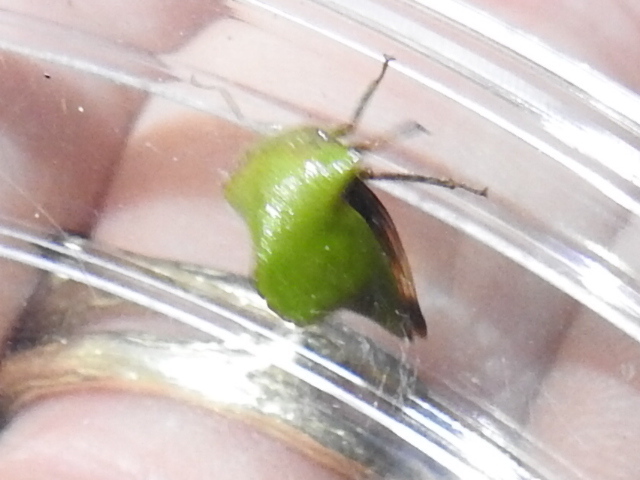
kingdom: Animalia
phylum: Arthropoda
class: Insecta
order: Hemiptera
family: Membracidae
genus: Helonica
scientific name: Helonica excelsa
